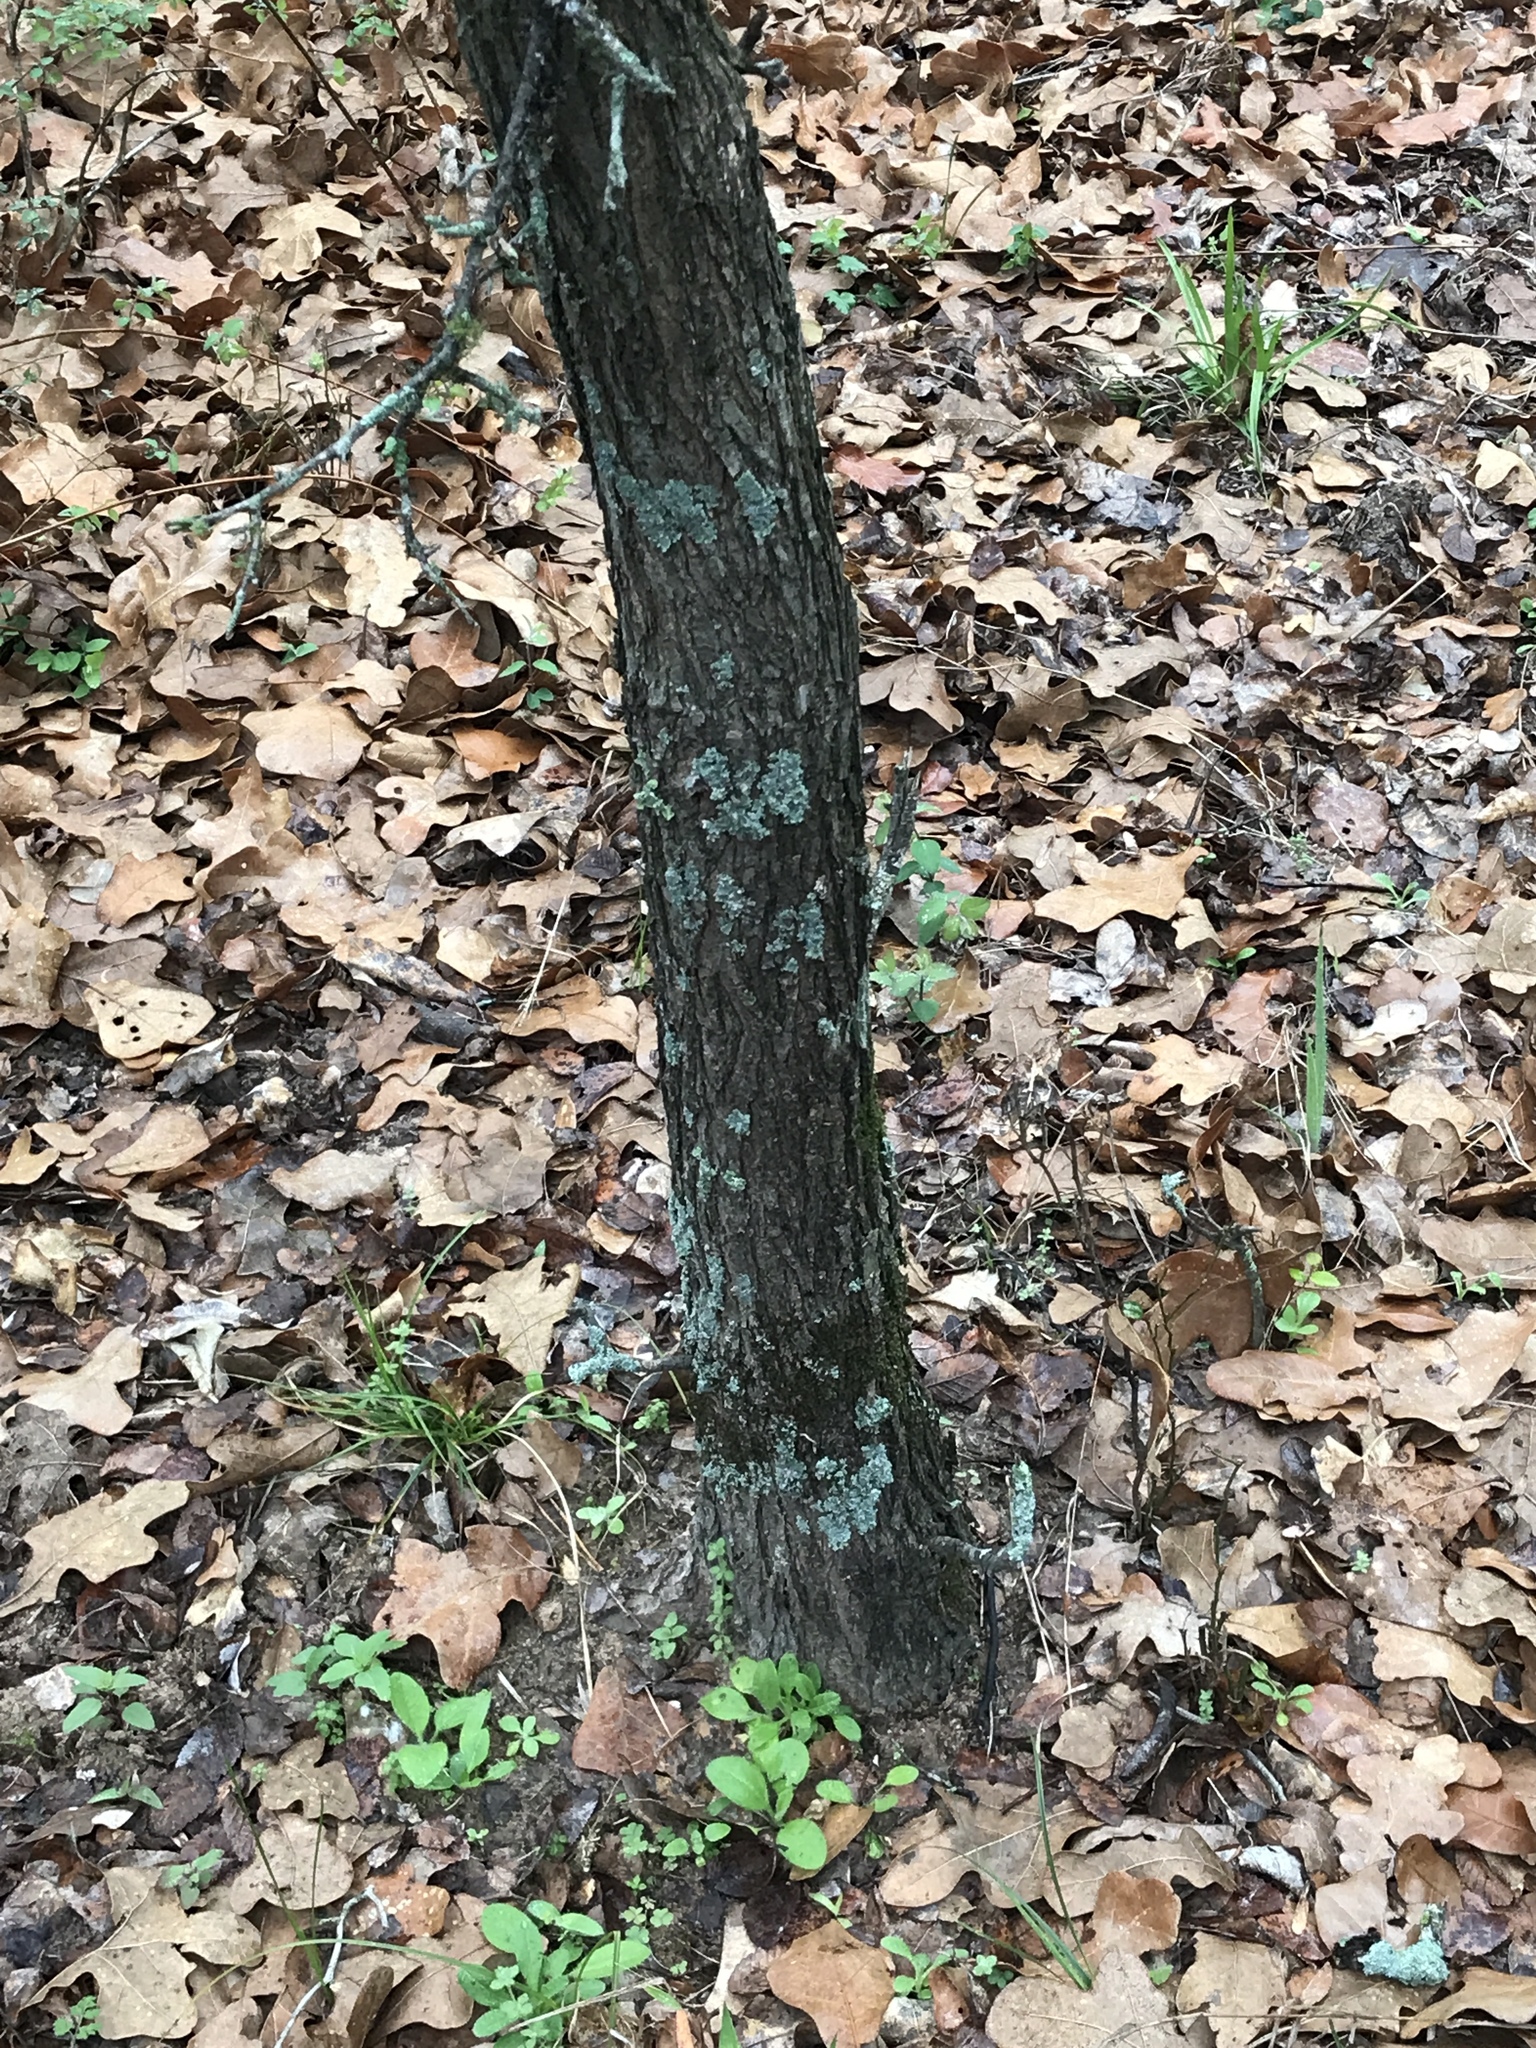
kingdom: Plantae
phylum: Tracheophyta
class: Magnoliopsida
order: Rosales
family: Ulmaceae
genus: Ulmus
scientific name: Ulmus crassifolia
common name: Basket elm
